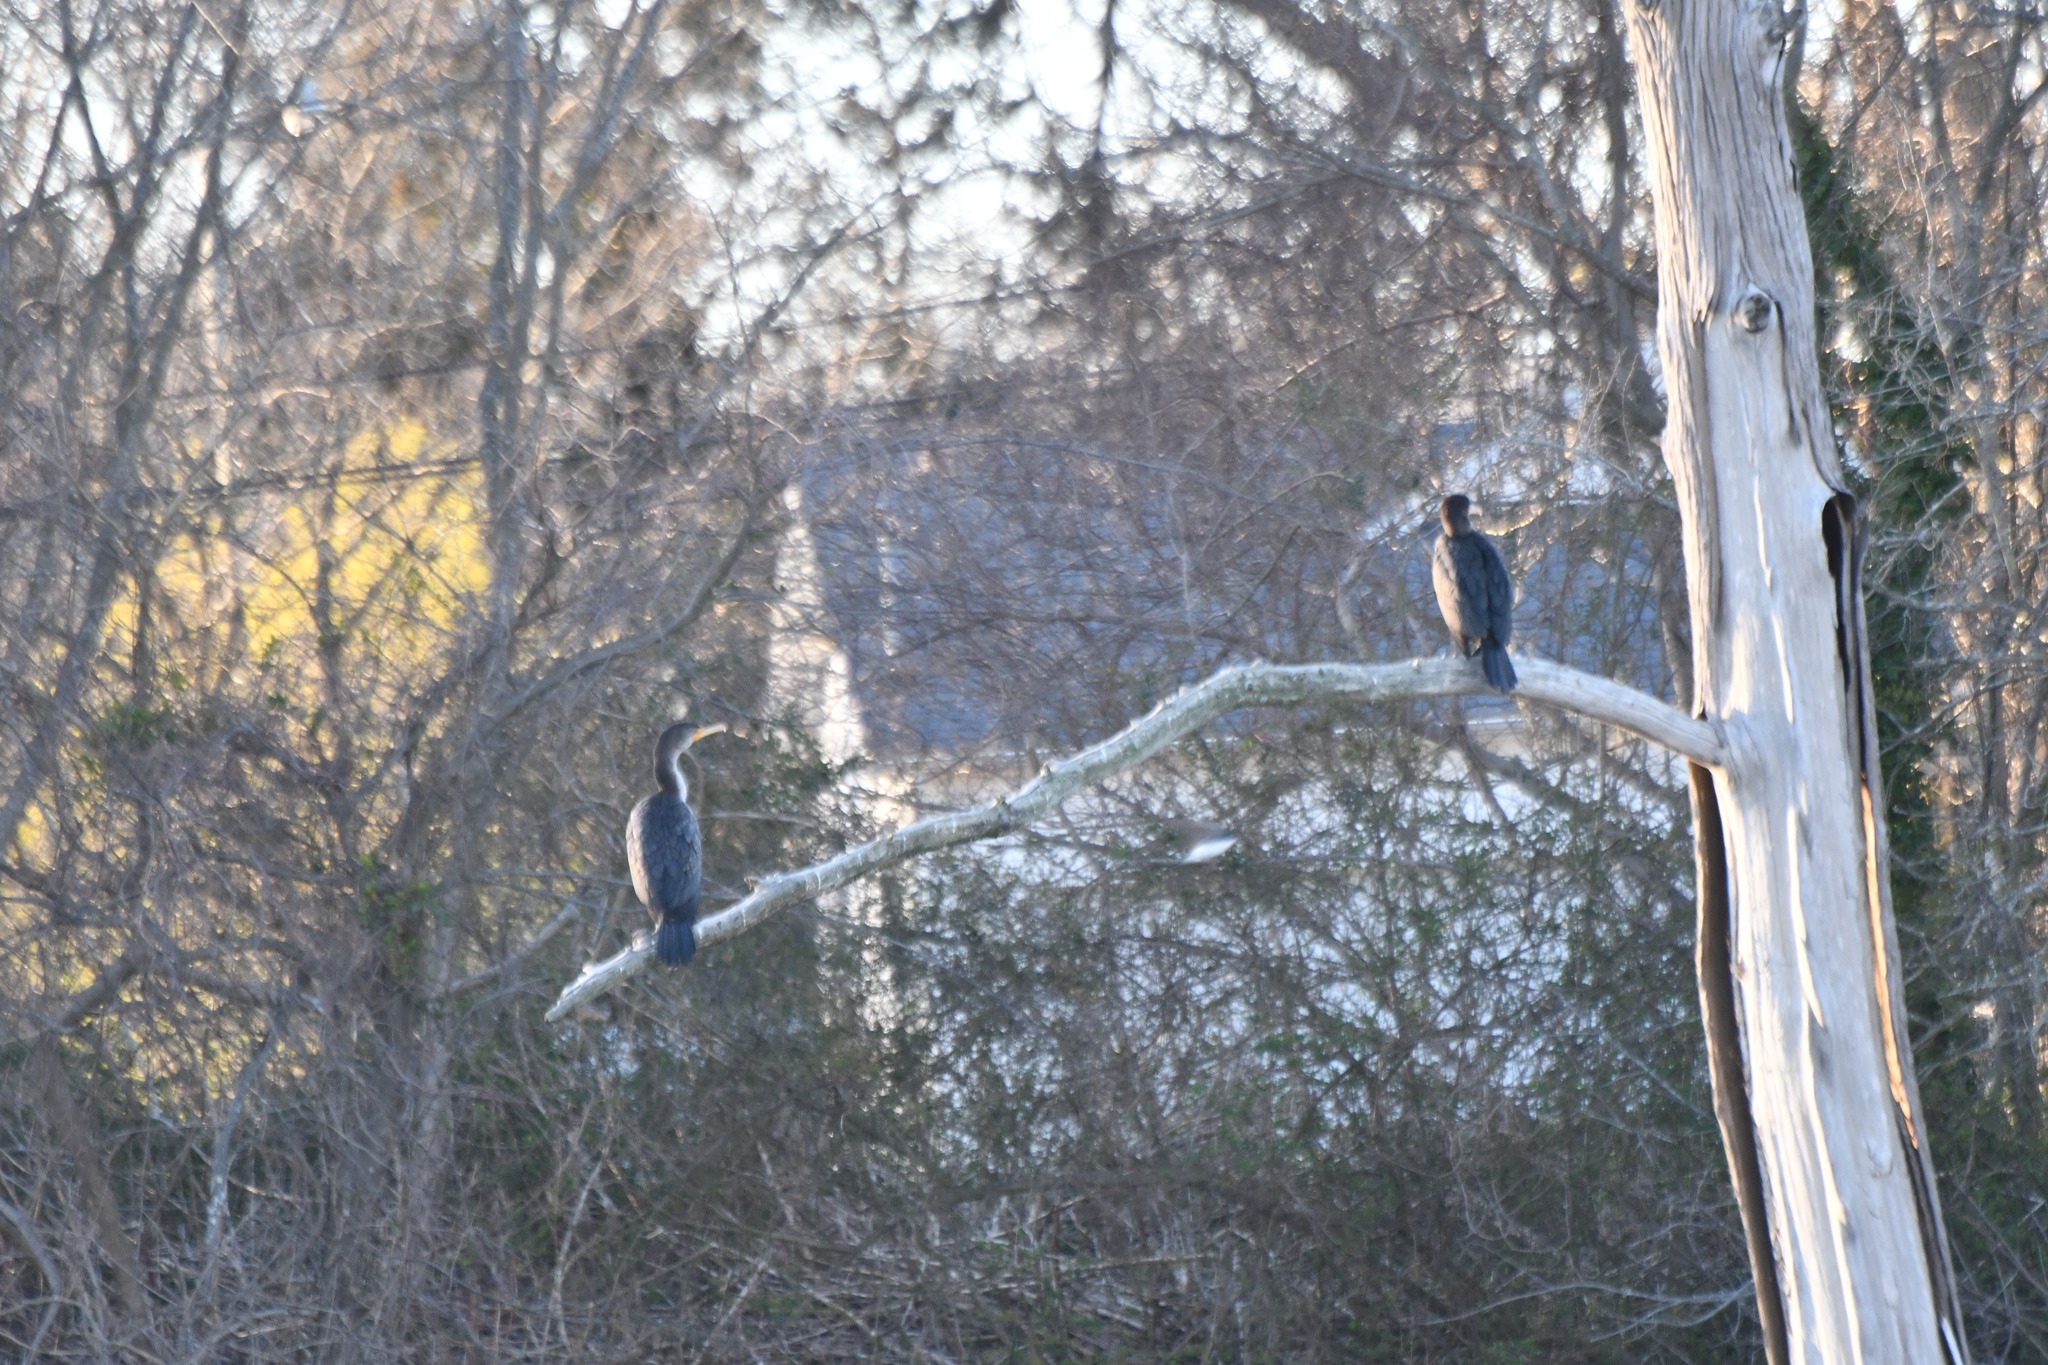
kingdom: Animalia
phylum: Chordata
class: Aves
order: Suliformes
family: Phalacrocoracidae
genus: Phalacrocorax
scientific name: Phalacrocorax auritus
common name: Double-crested cormorant
